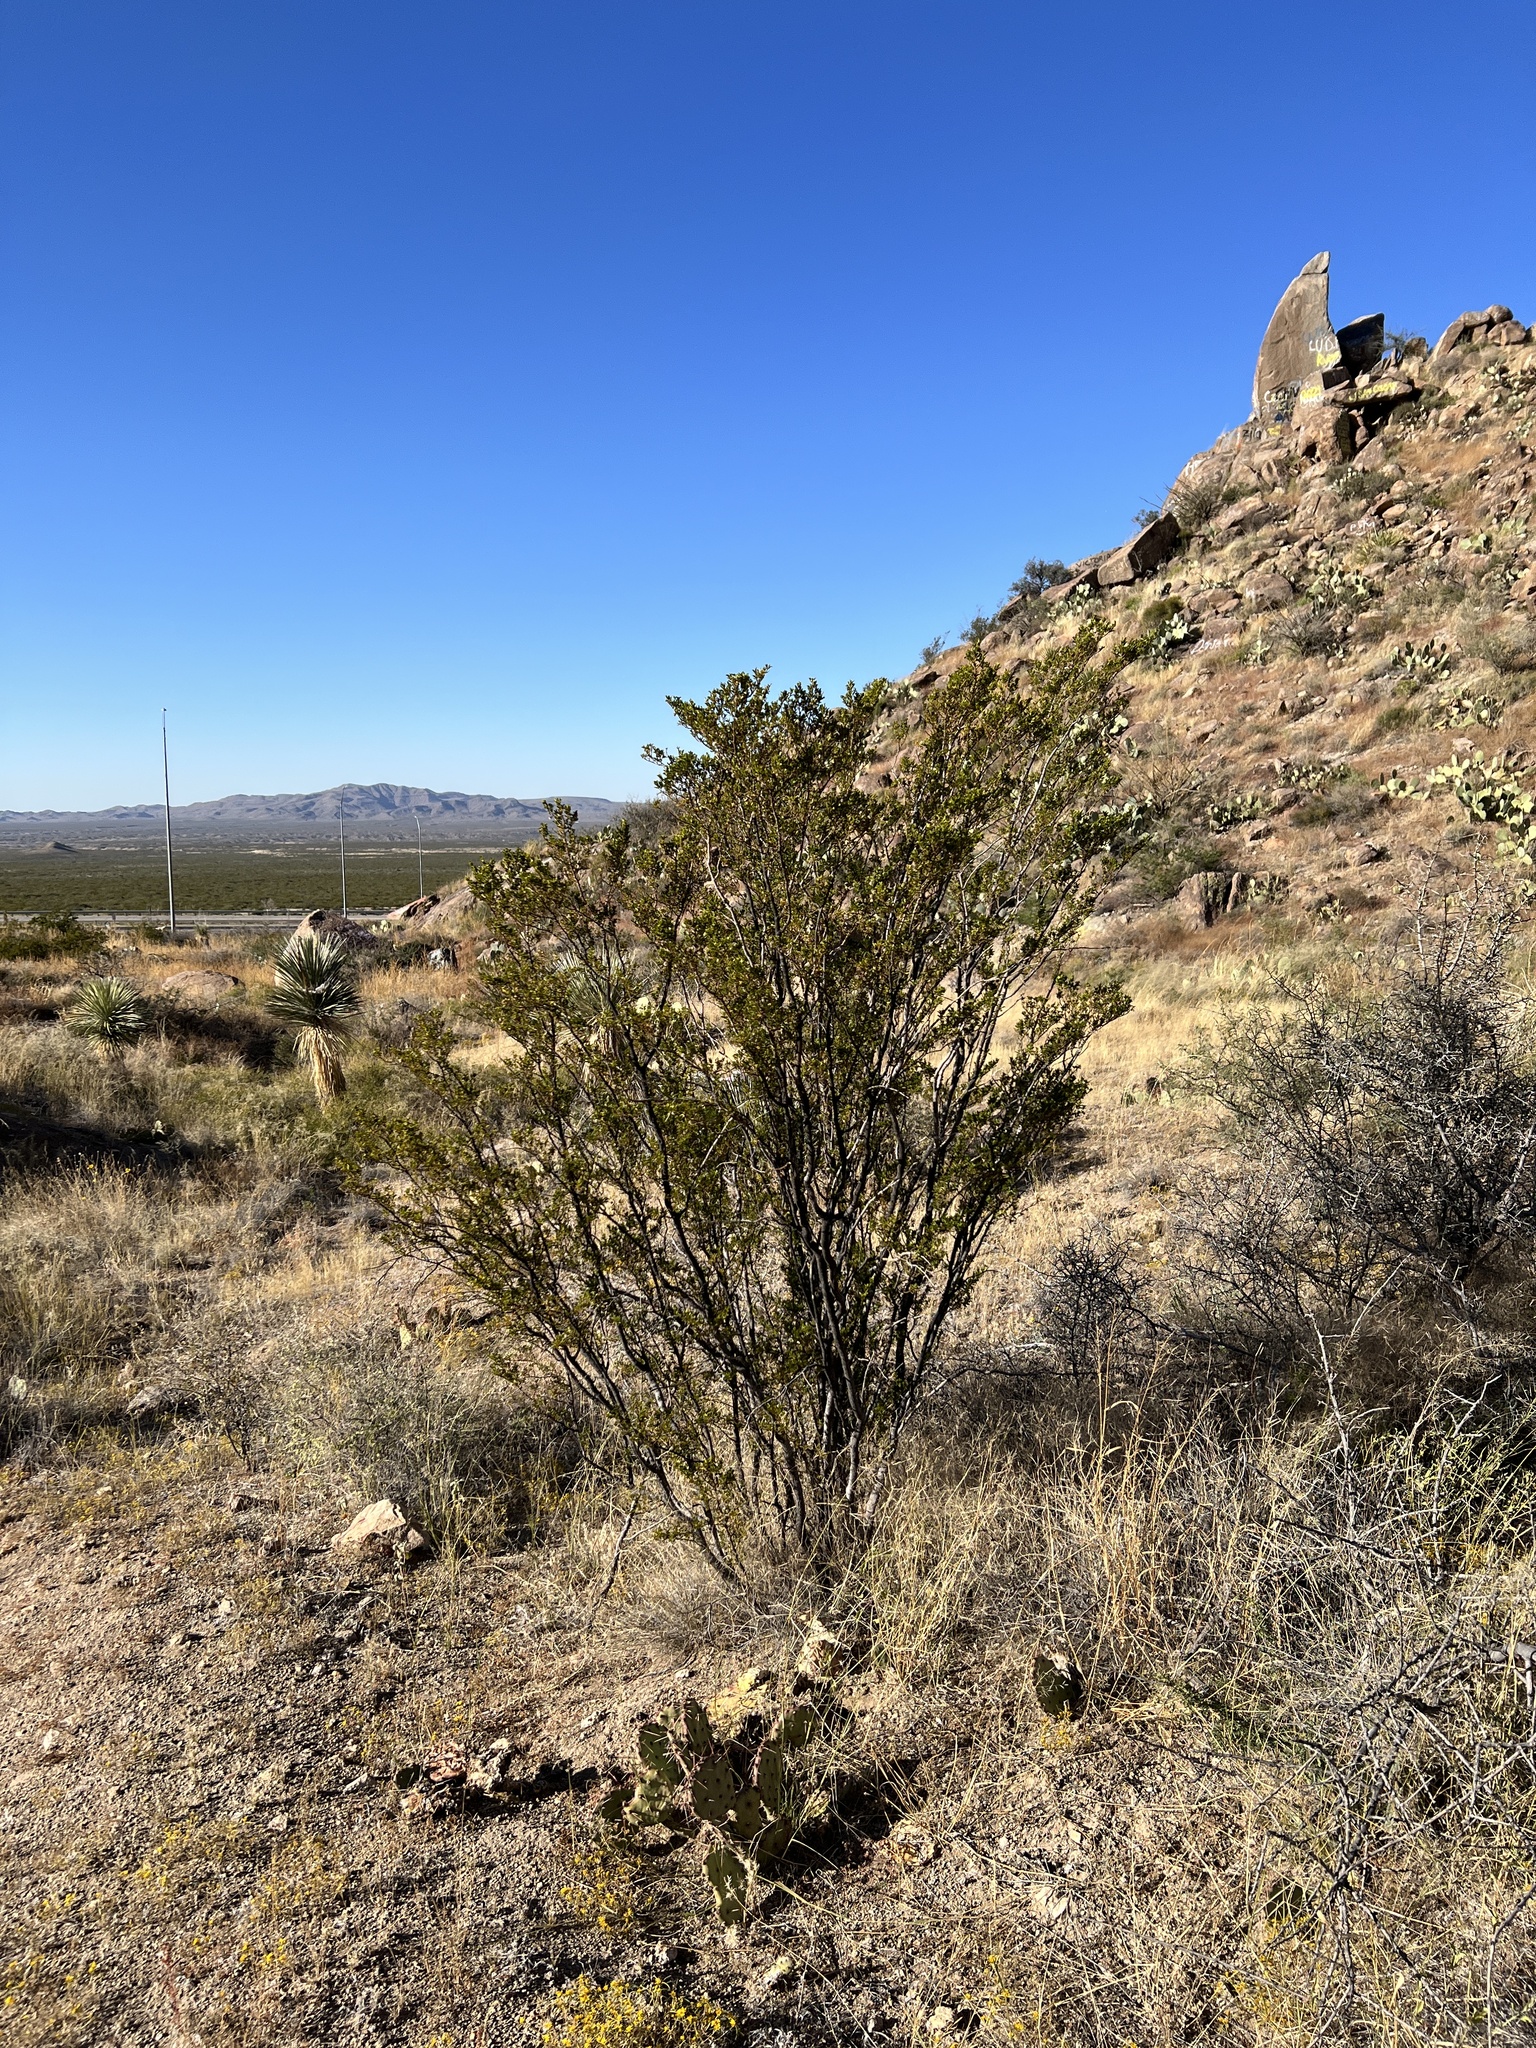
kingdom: Plantae
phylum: Tracheophyta
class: Magnoliopsida
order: Zygophyllales
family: Zygophyllaceae
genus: Larrea
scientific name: Larrea tridentata
